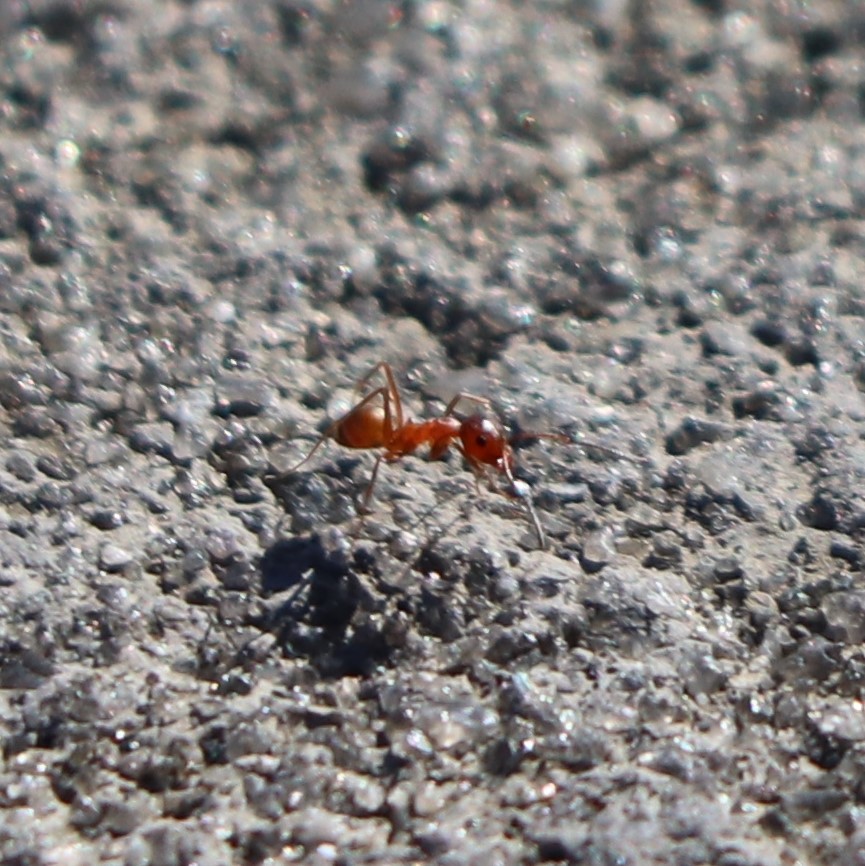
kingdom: Animalia
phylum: Arthropoda
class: Insecta
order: Hymenoptera
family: Formicidae
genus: Dorymyrmex
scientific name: Dorymyrmex bureni
